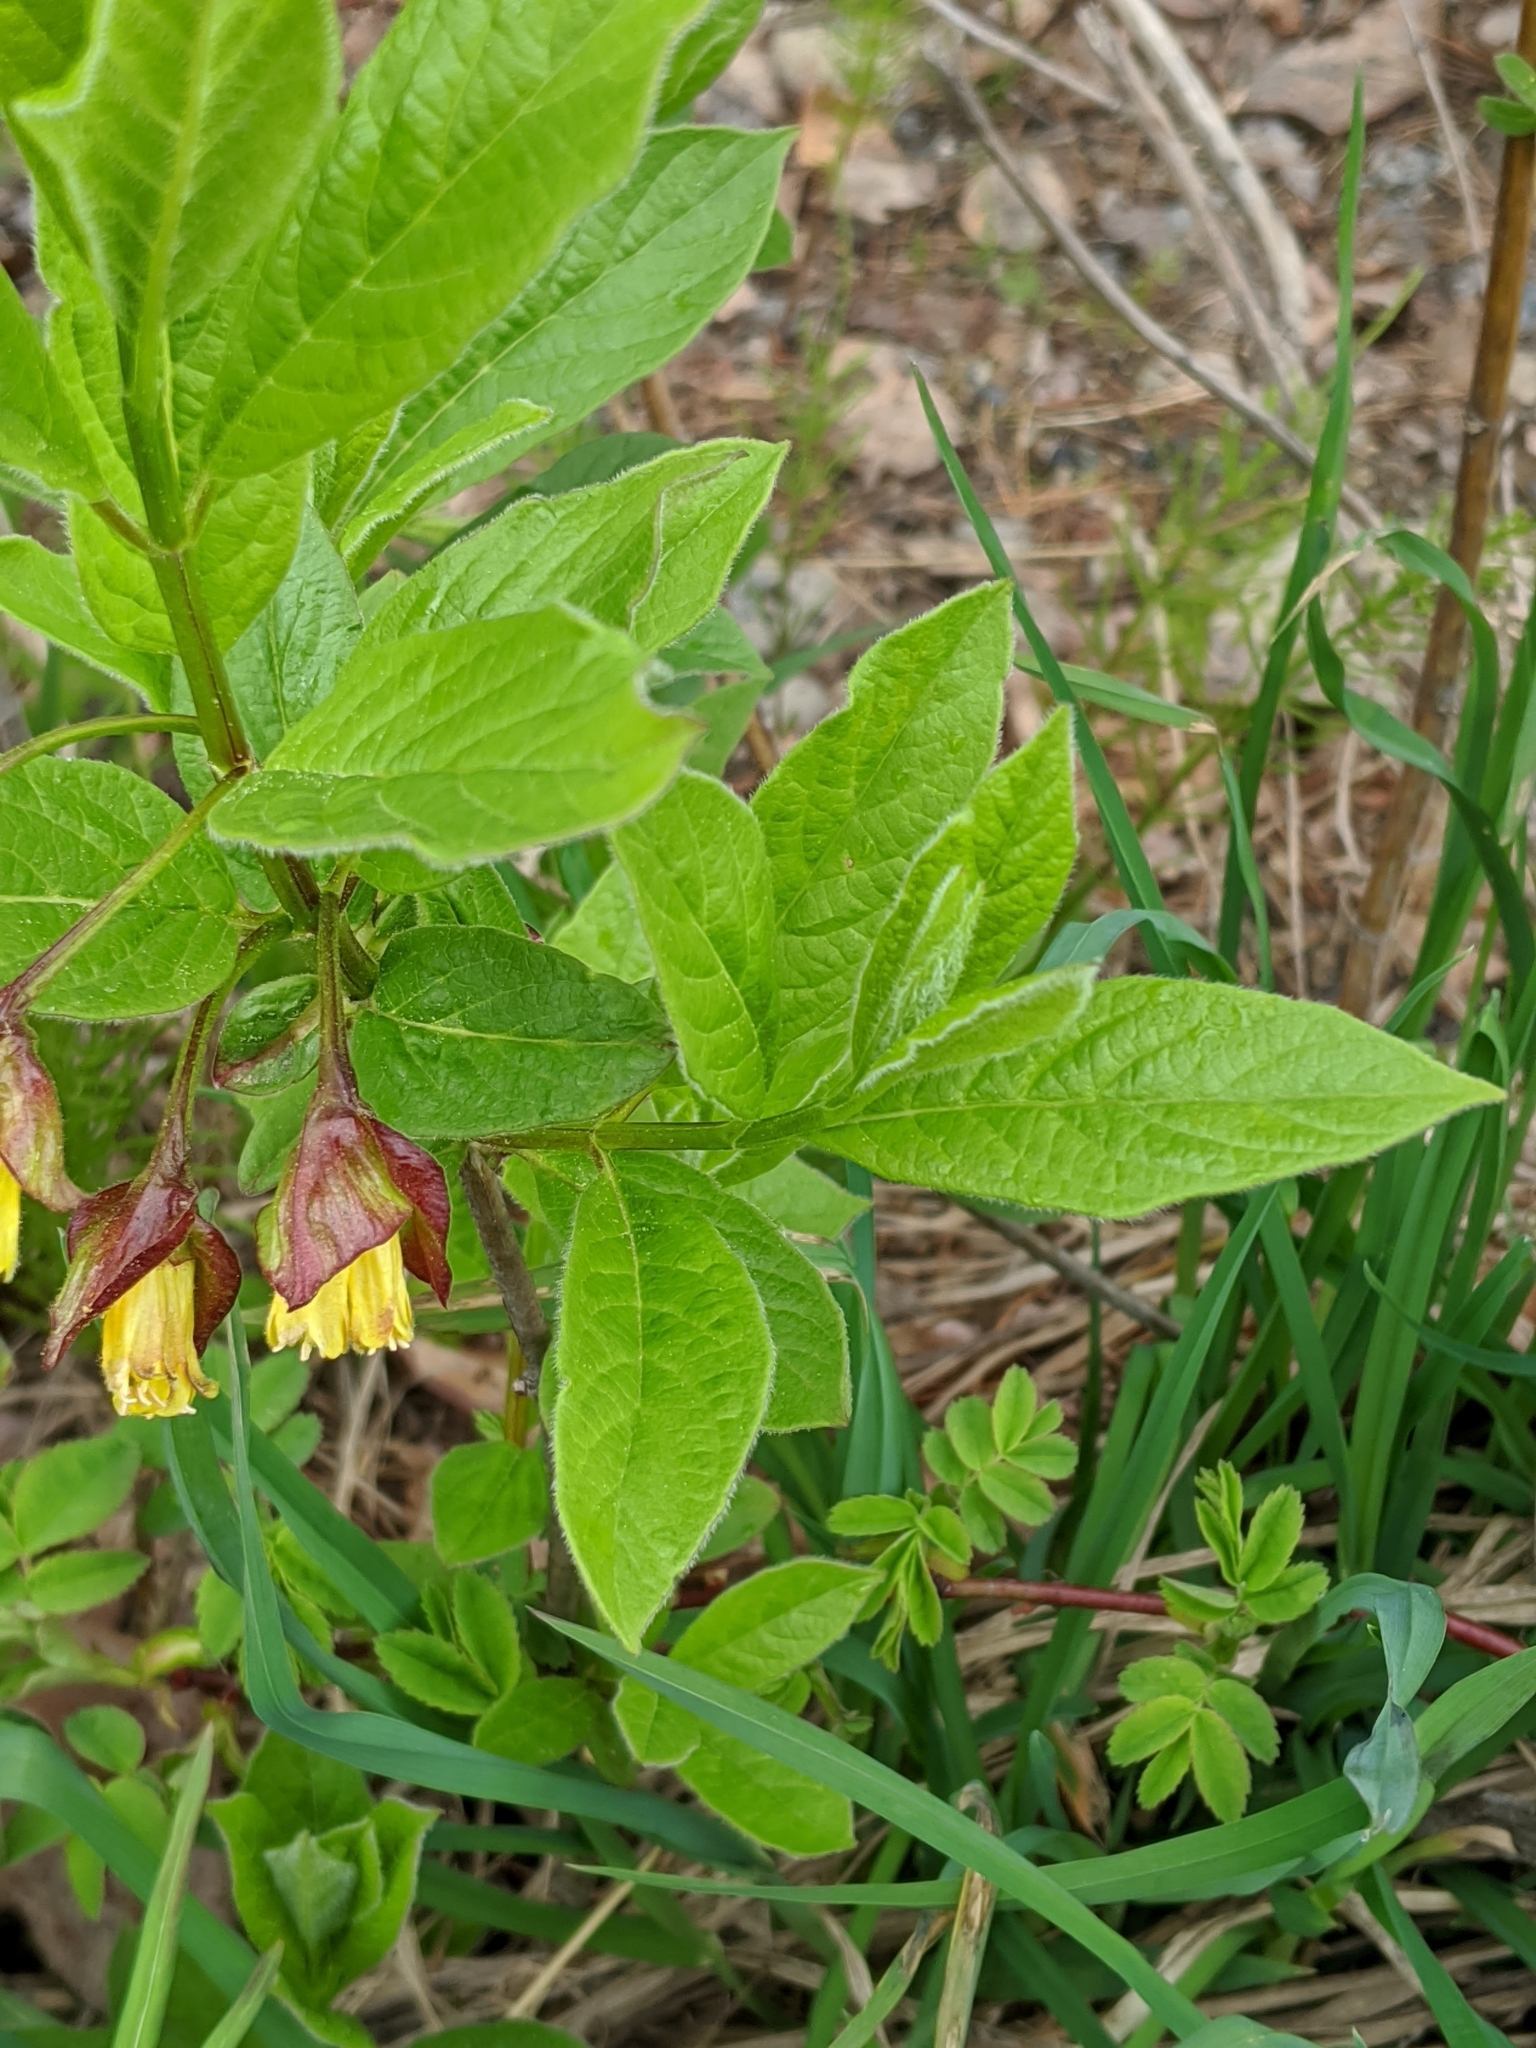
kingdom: Plantae
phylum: Tracheophyta
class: Magnoliopsida
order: Dipsacales
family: Caprifoliaceae
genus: Lonicera
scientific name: Lonicera involucrata
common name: Californian honeysuckle
